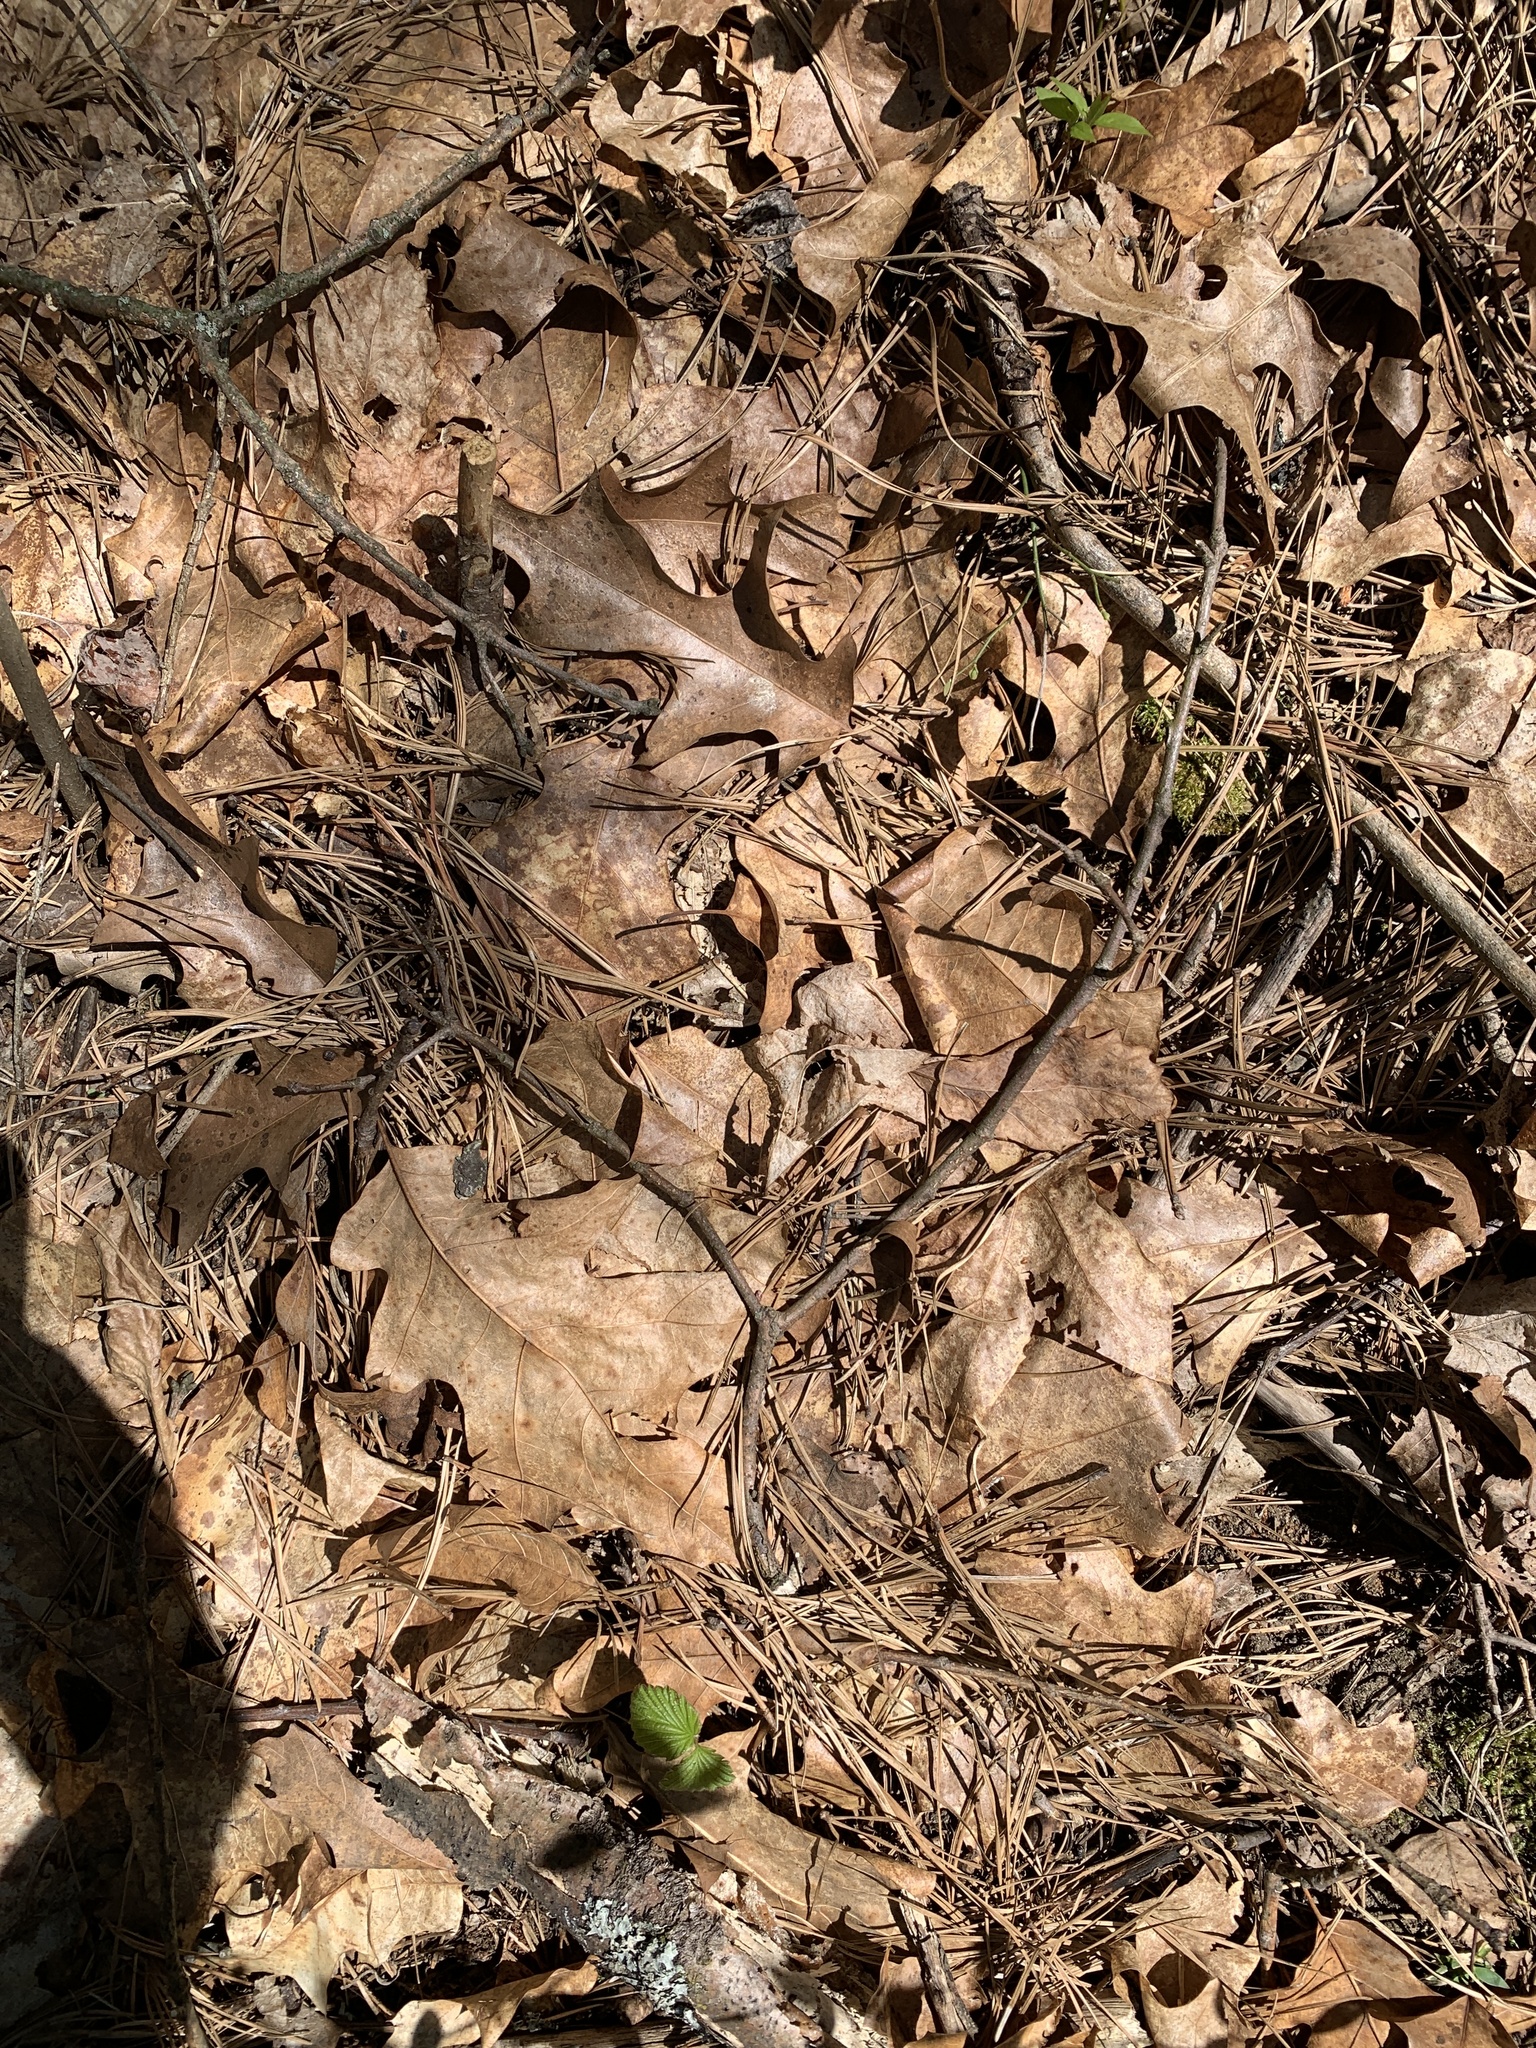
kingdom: Plantae
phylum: Tracheophyta
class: Magnoliopsida
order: Fagales
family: Fagaceae
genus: Quercus
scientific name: Quercus velutina
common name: Black oak
